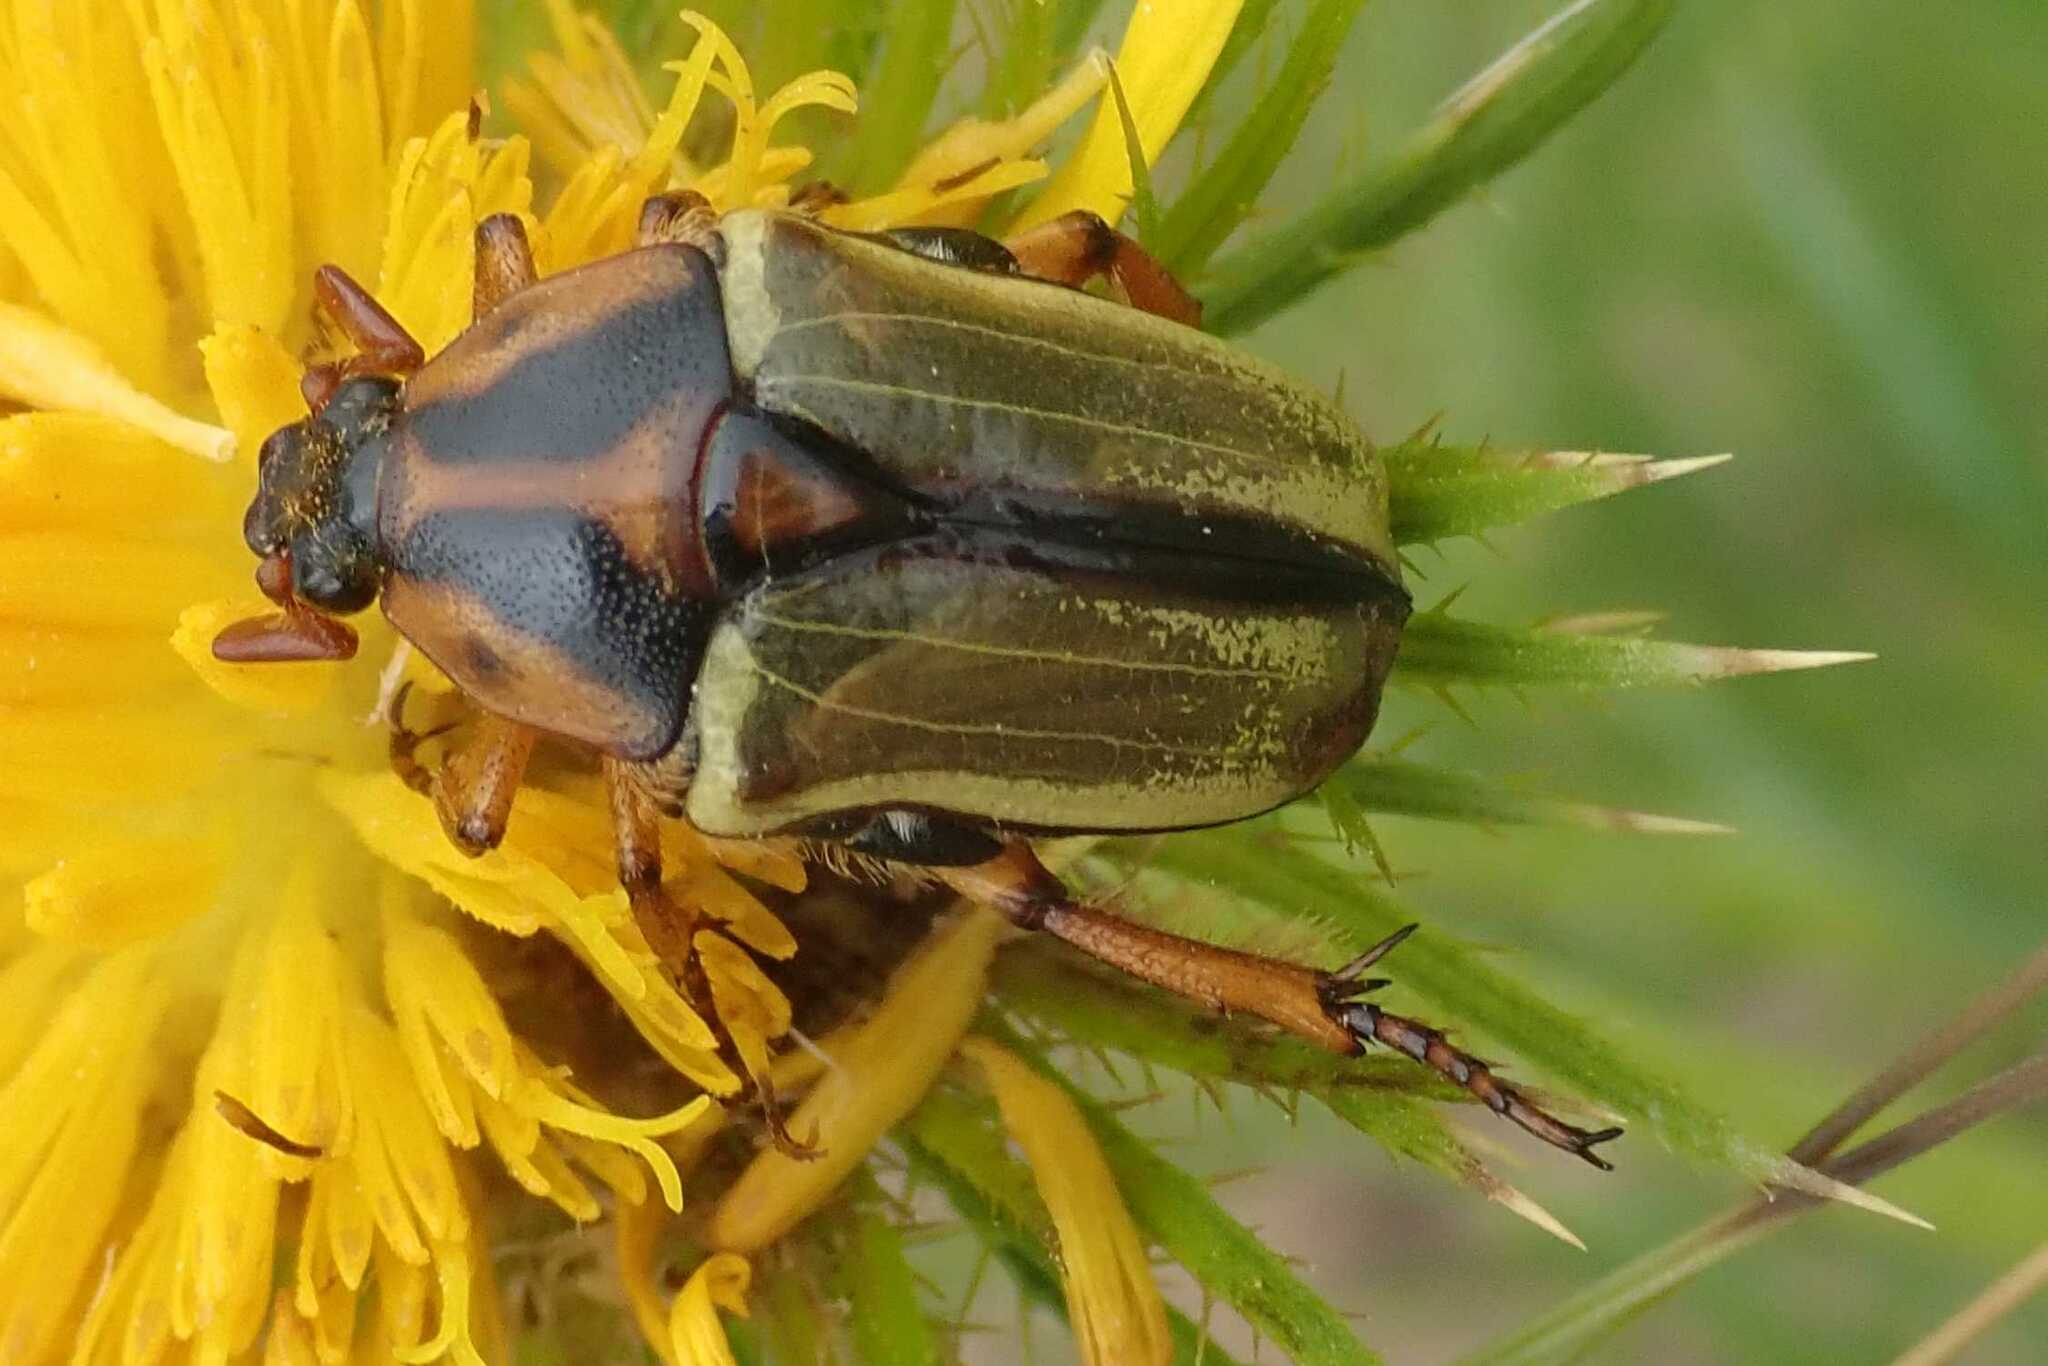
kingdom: Animalia
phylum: Arthropoda
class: Insecta
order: Coleoptera
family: Scarabaeidae
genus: Anisorrhina
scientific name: Anisorrhina umbonata
